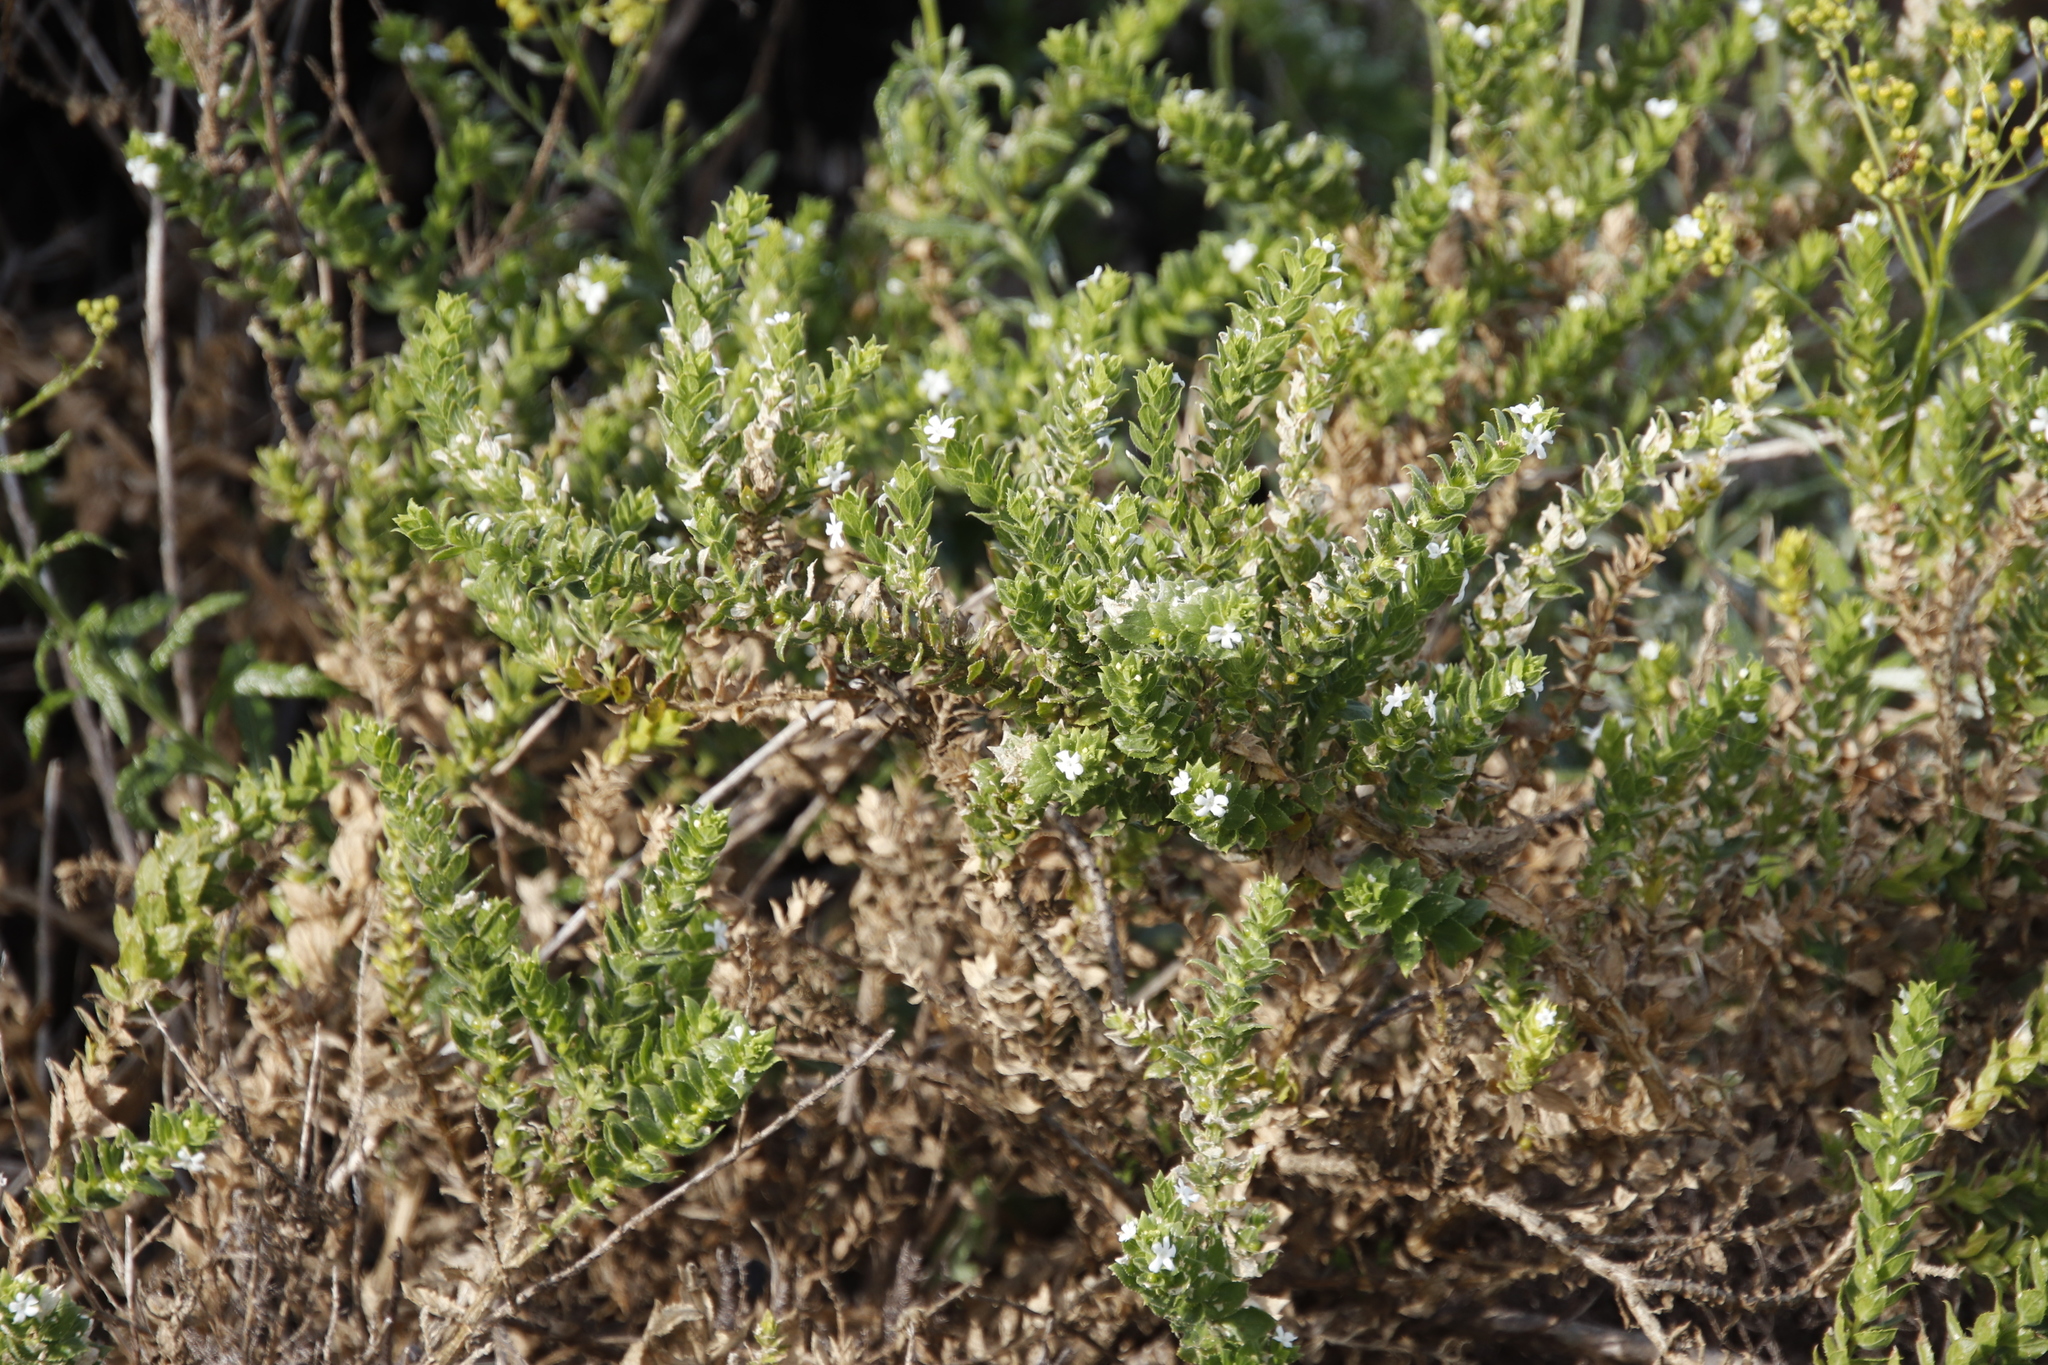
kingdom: Plantae
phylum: Tracheophyta
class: Magnoliopsida
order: Lamiales
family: Scrophulariaceae
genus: Oftia
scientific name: Oftia africana
